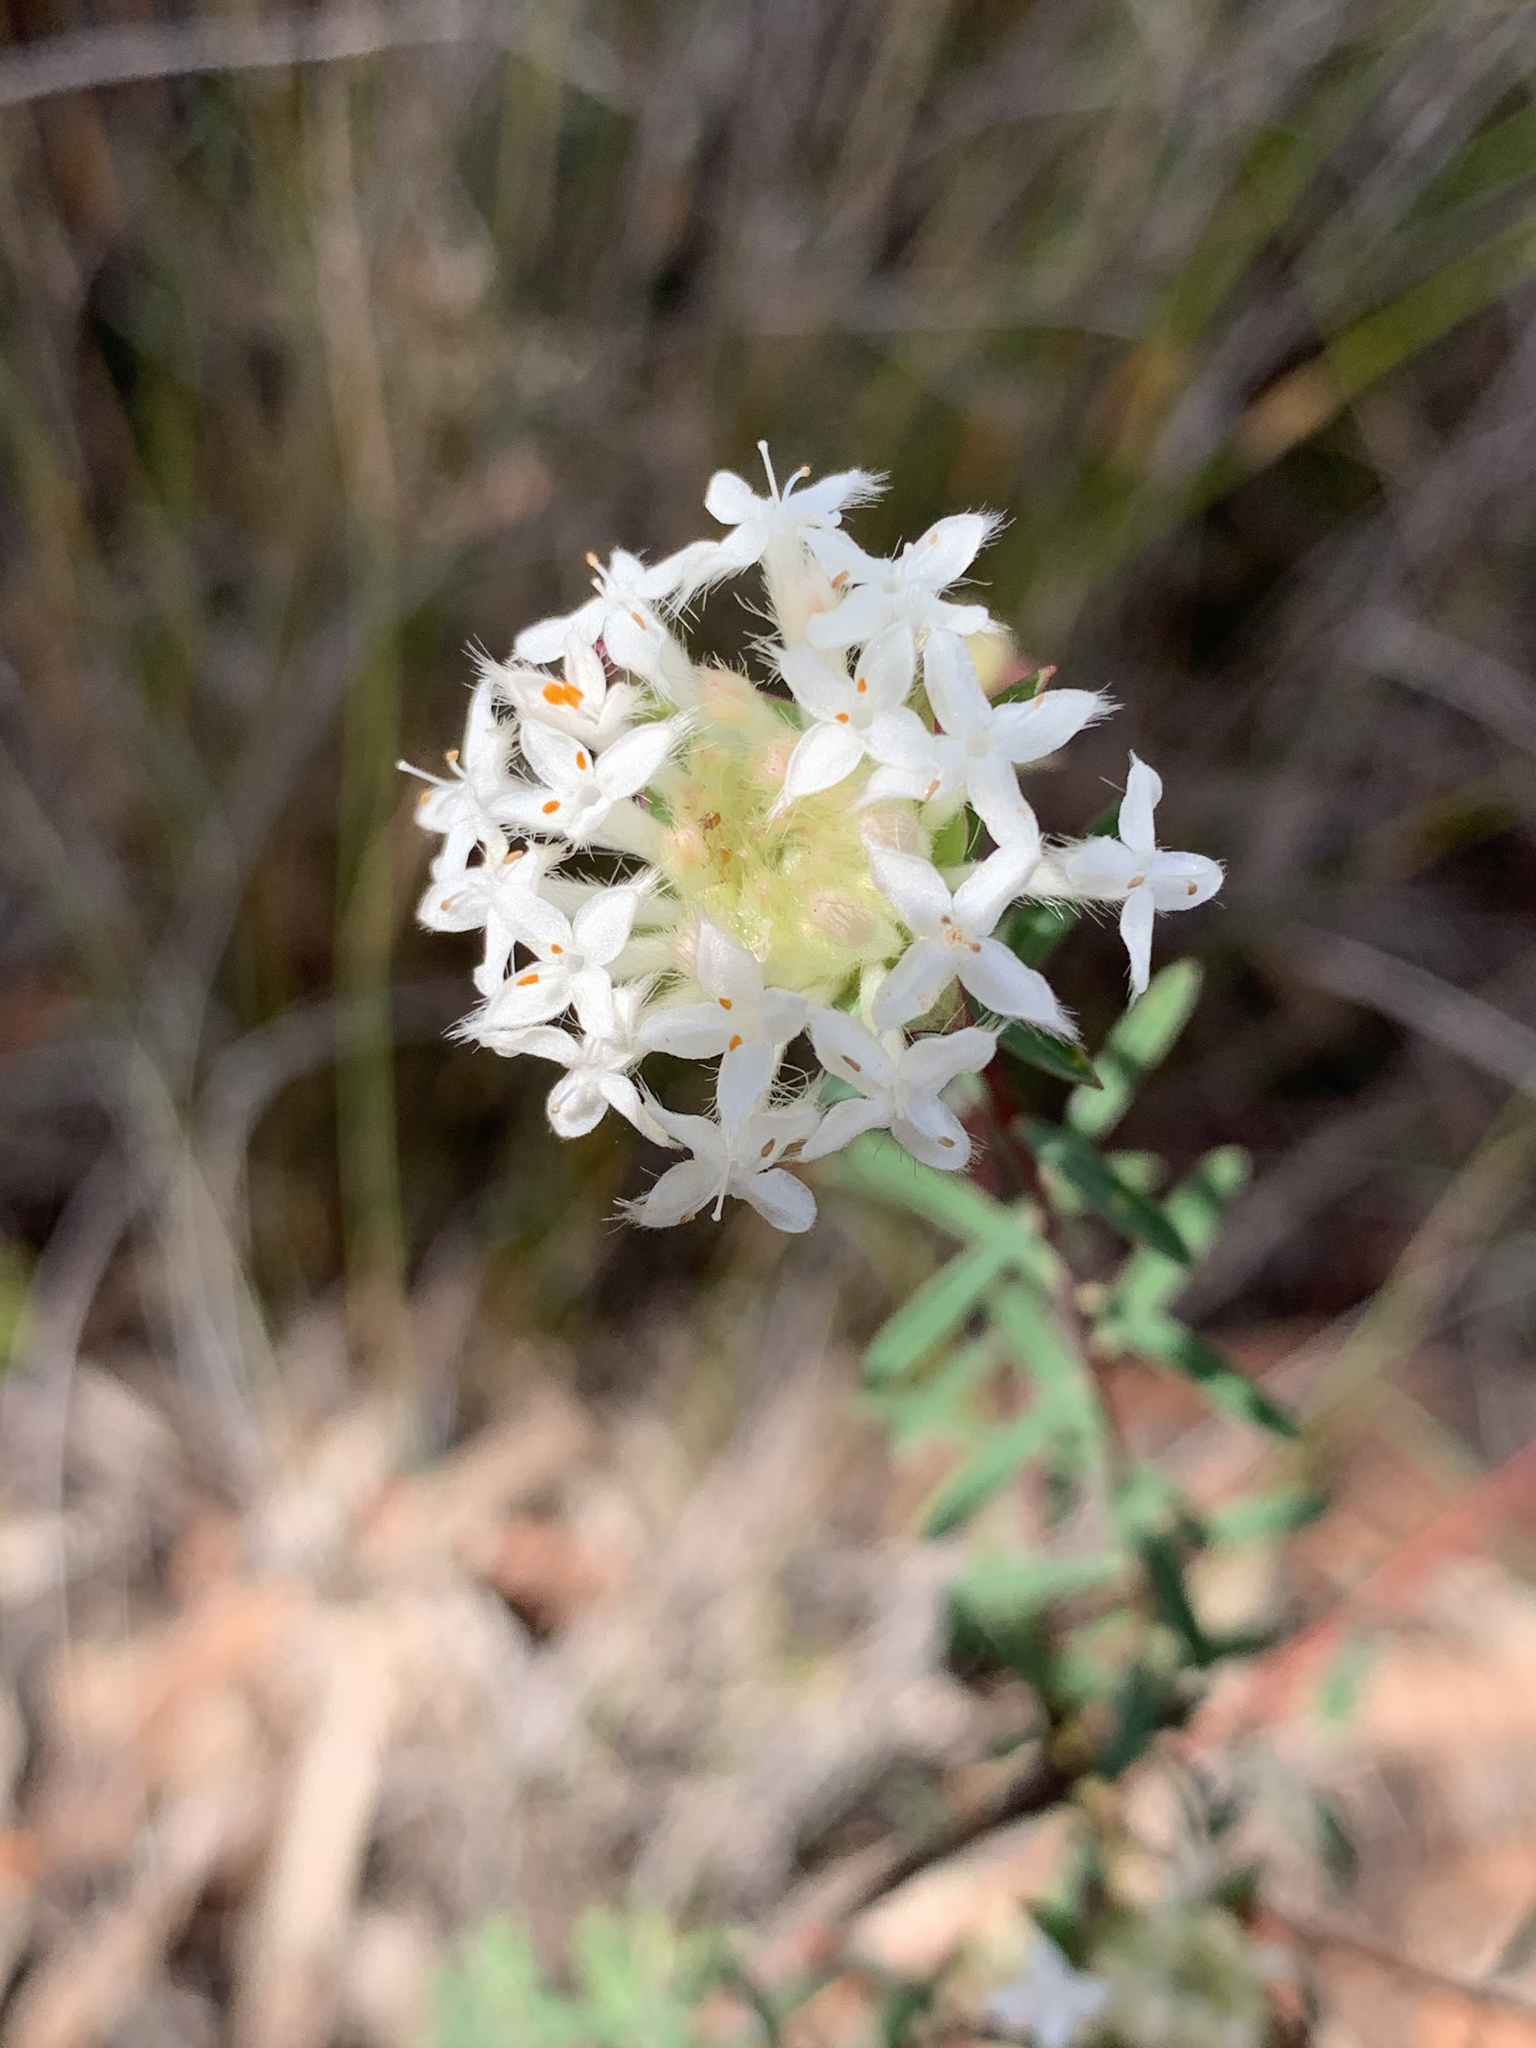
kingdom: Plantae
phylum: Tracheophyta
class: Magnoliopsida
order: Malvales
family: Thymelaeaceae
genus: Pimelea
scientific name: Pimelea linifolia
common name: Queen-of-the-bush
